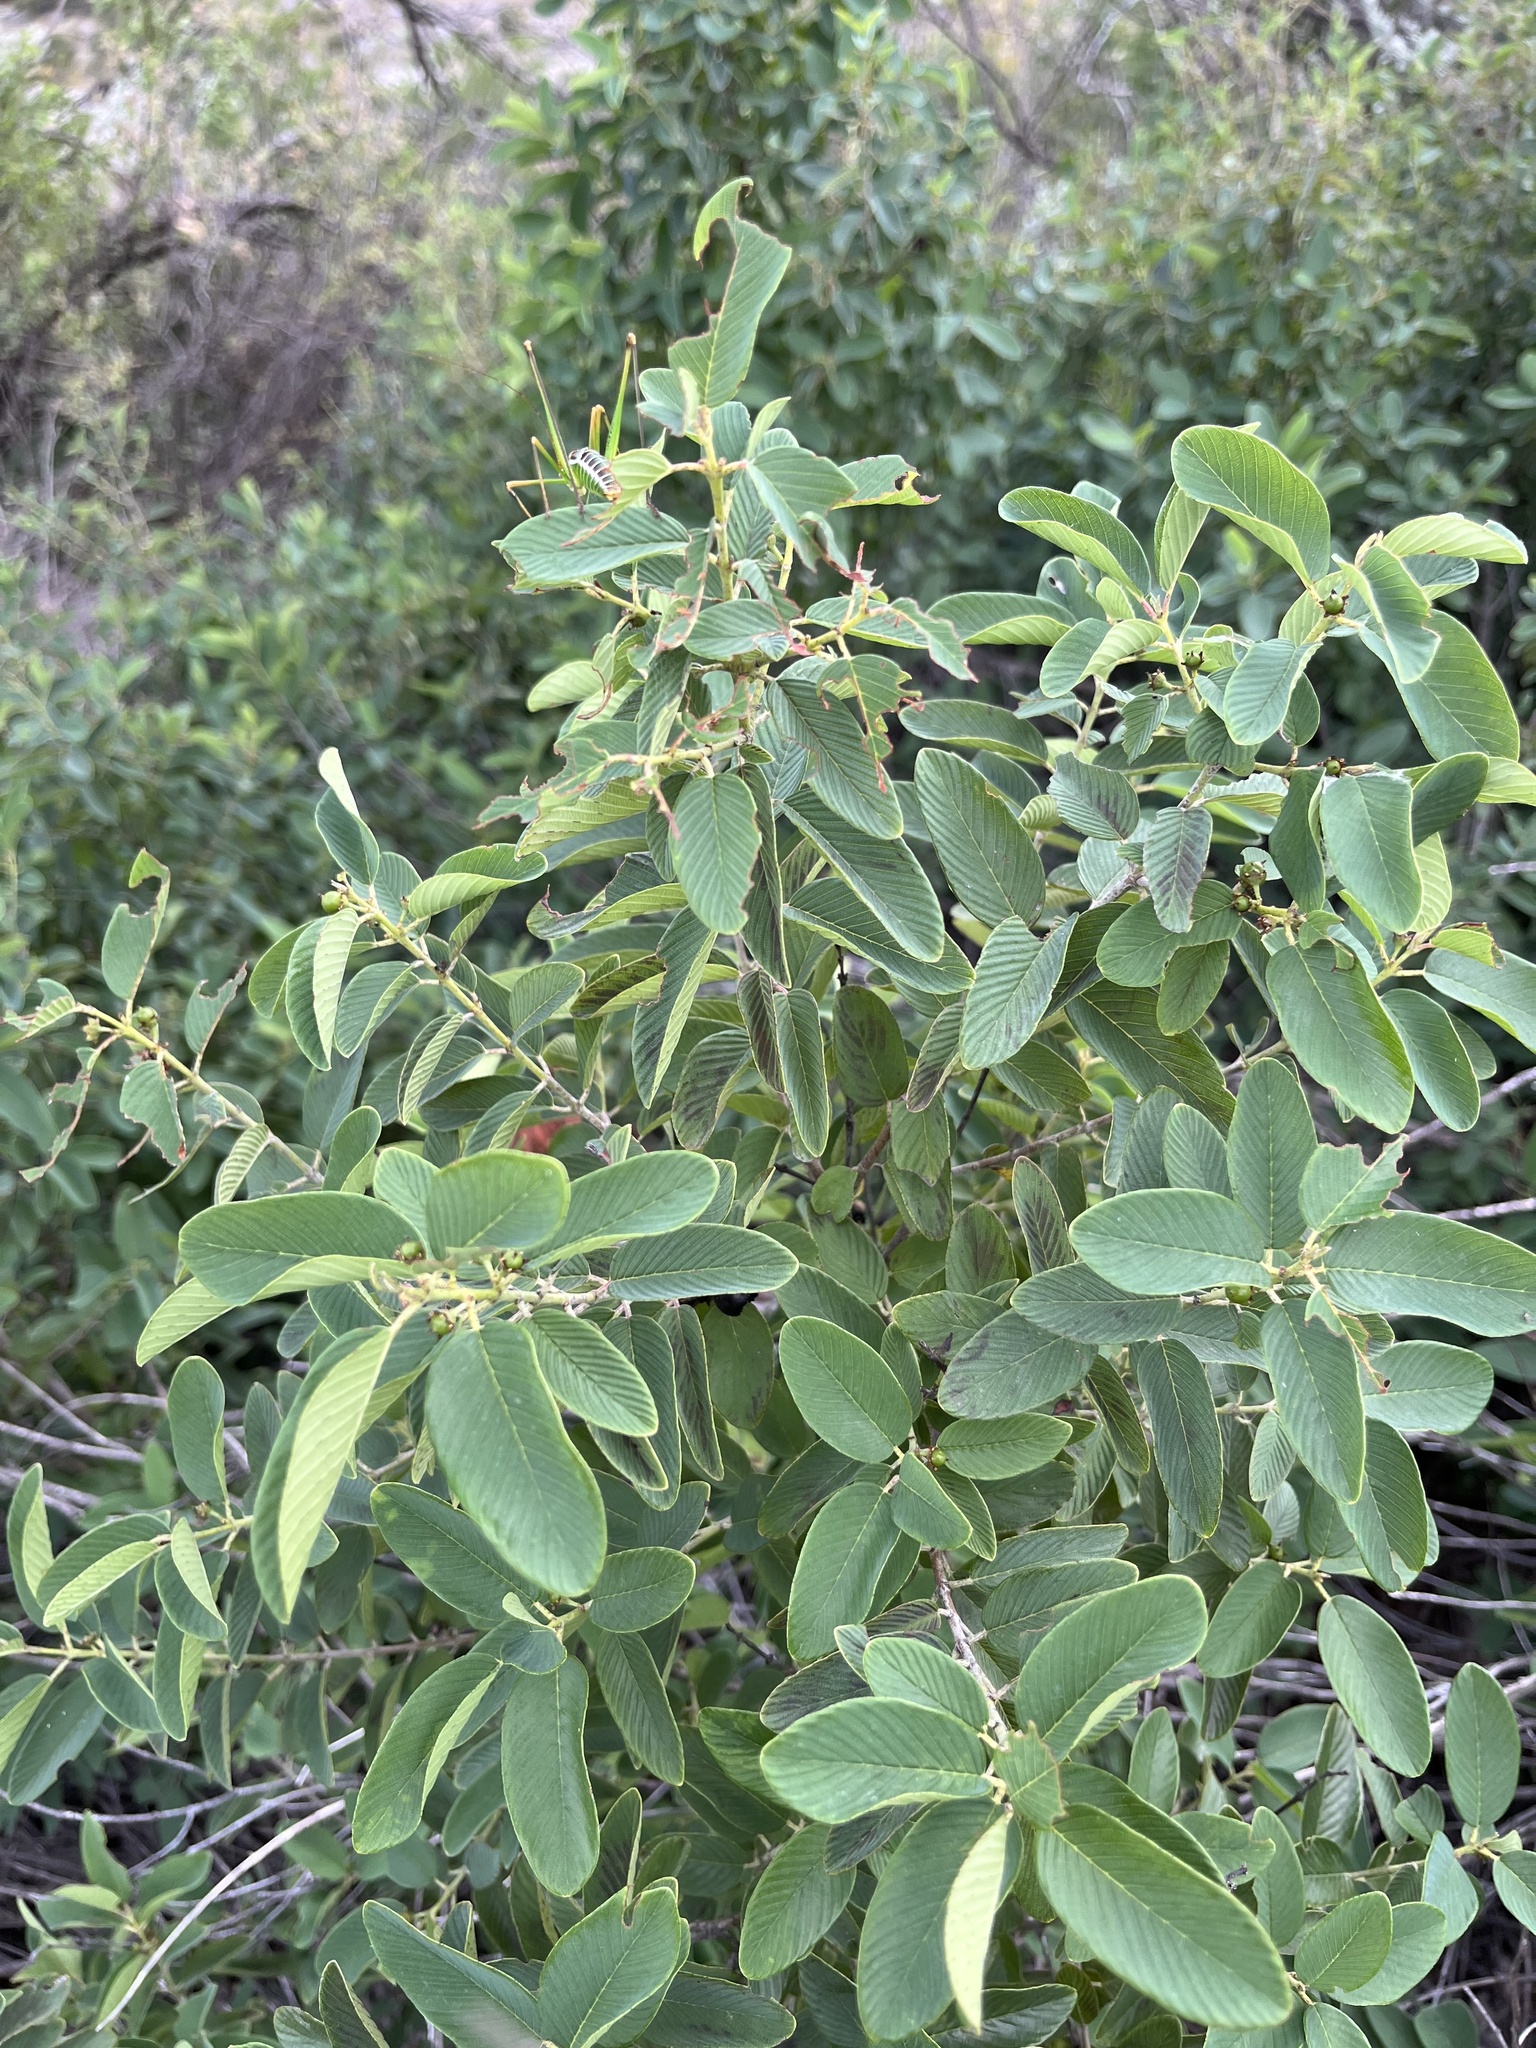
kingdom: Plantae
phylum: Tracheophyta
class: Magnoliopsida
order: Rosales
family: Rhamnaceae
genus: Karwinskia
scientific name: Karwinskia humboldtiana
